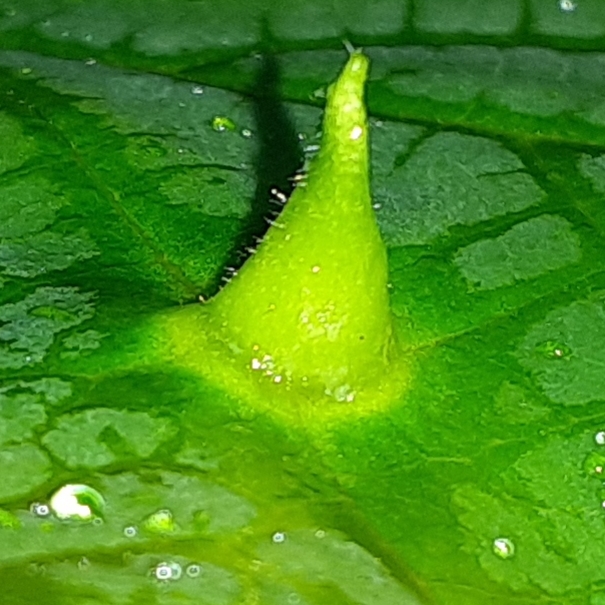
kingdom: Animalia
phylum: Arthropoda
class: Insecta
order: Hemiptera
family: Aphididae
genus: Hormaphis
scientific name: Hormaphis hamamelidis
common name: Witch-hazel cone gall aphid
